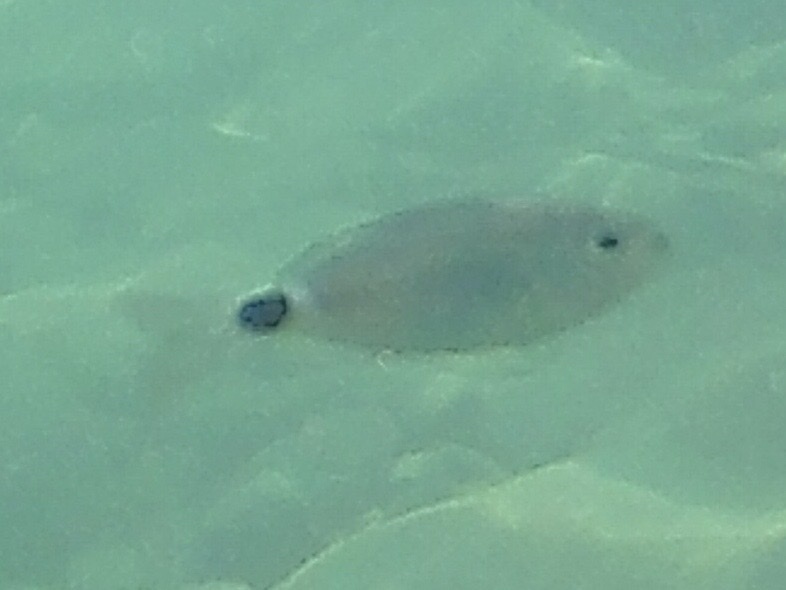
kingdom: Animalia
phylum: Chordata
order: Perciformes
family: Sparidae
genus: Oblada
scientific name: Oblada melanura
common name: Saddled seabream
